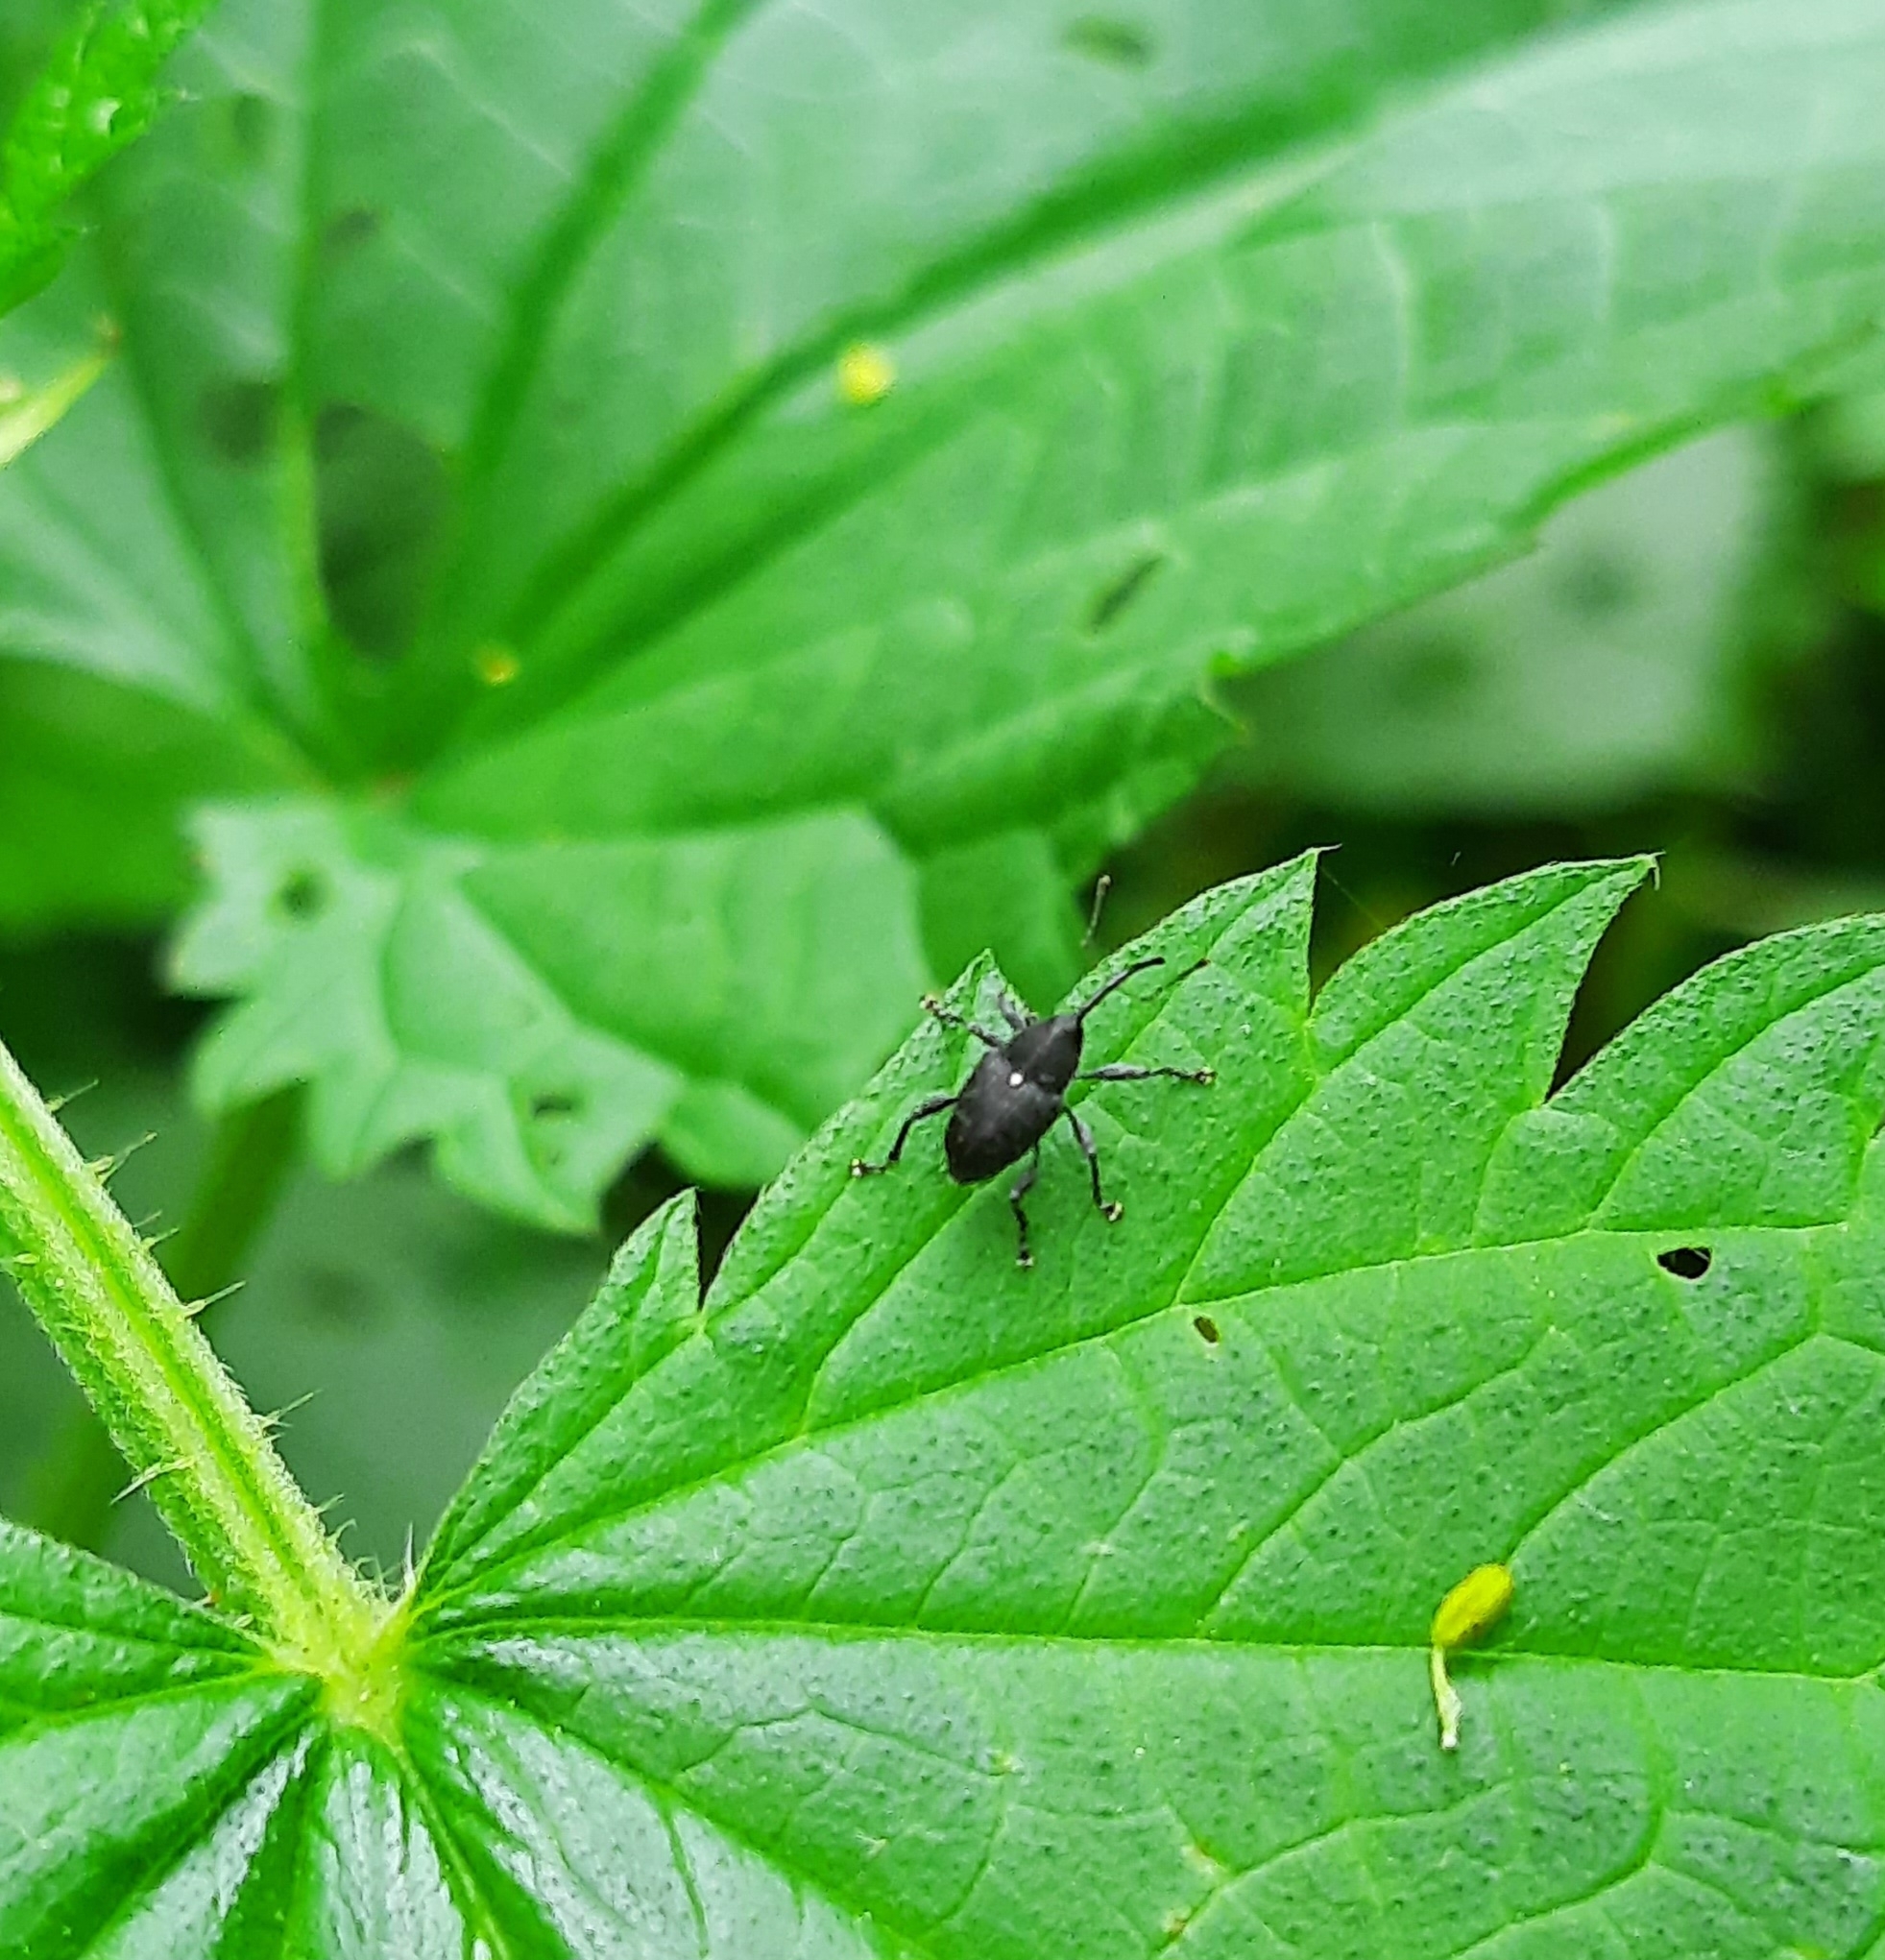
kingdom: Animalia
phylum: Arthropoda
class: Insecta
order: Coleoptera
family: Curculionidae
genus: Curculio
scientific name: Curculio vicetinus
